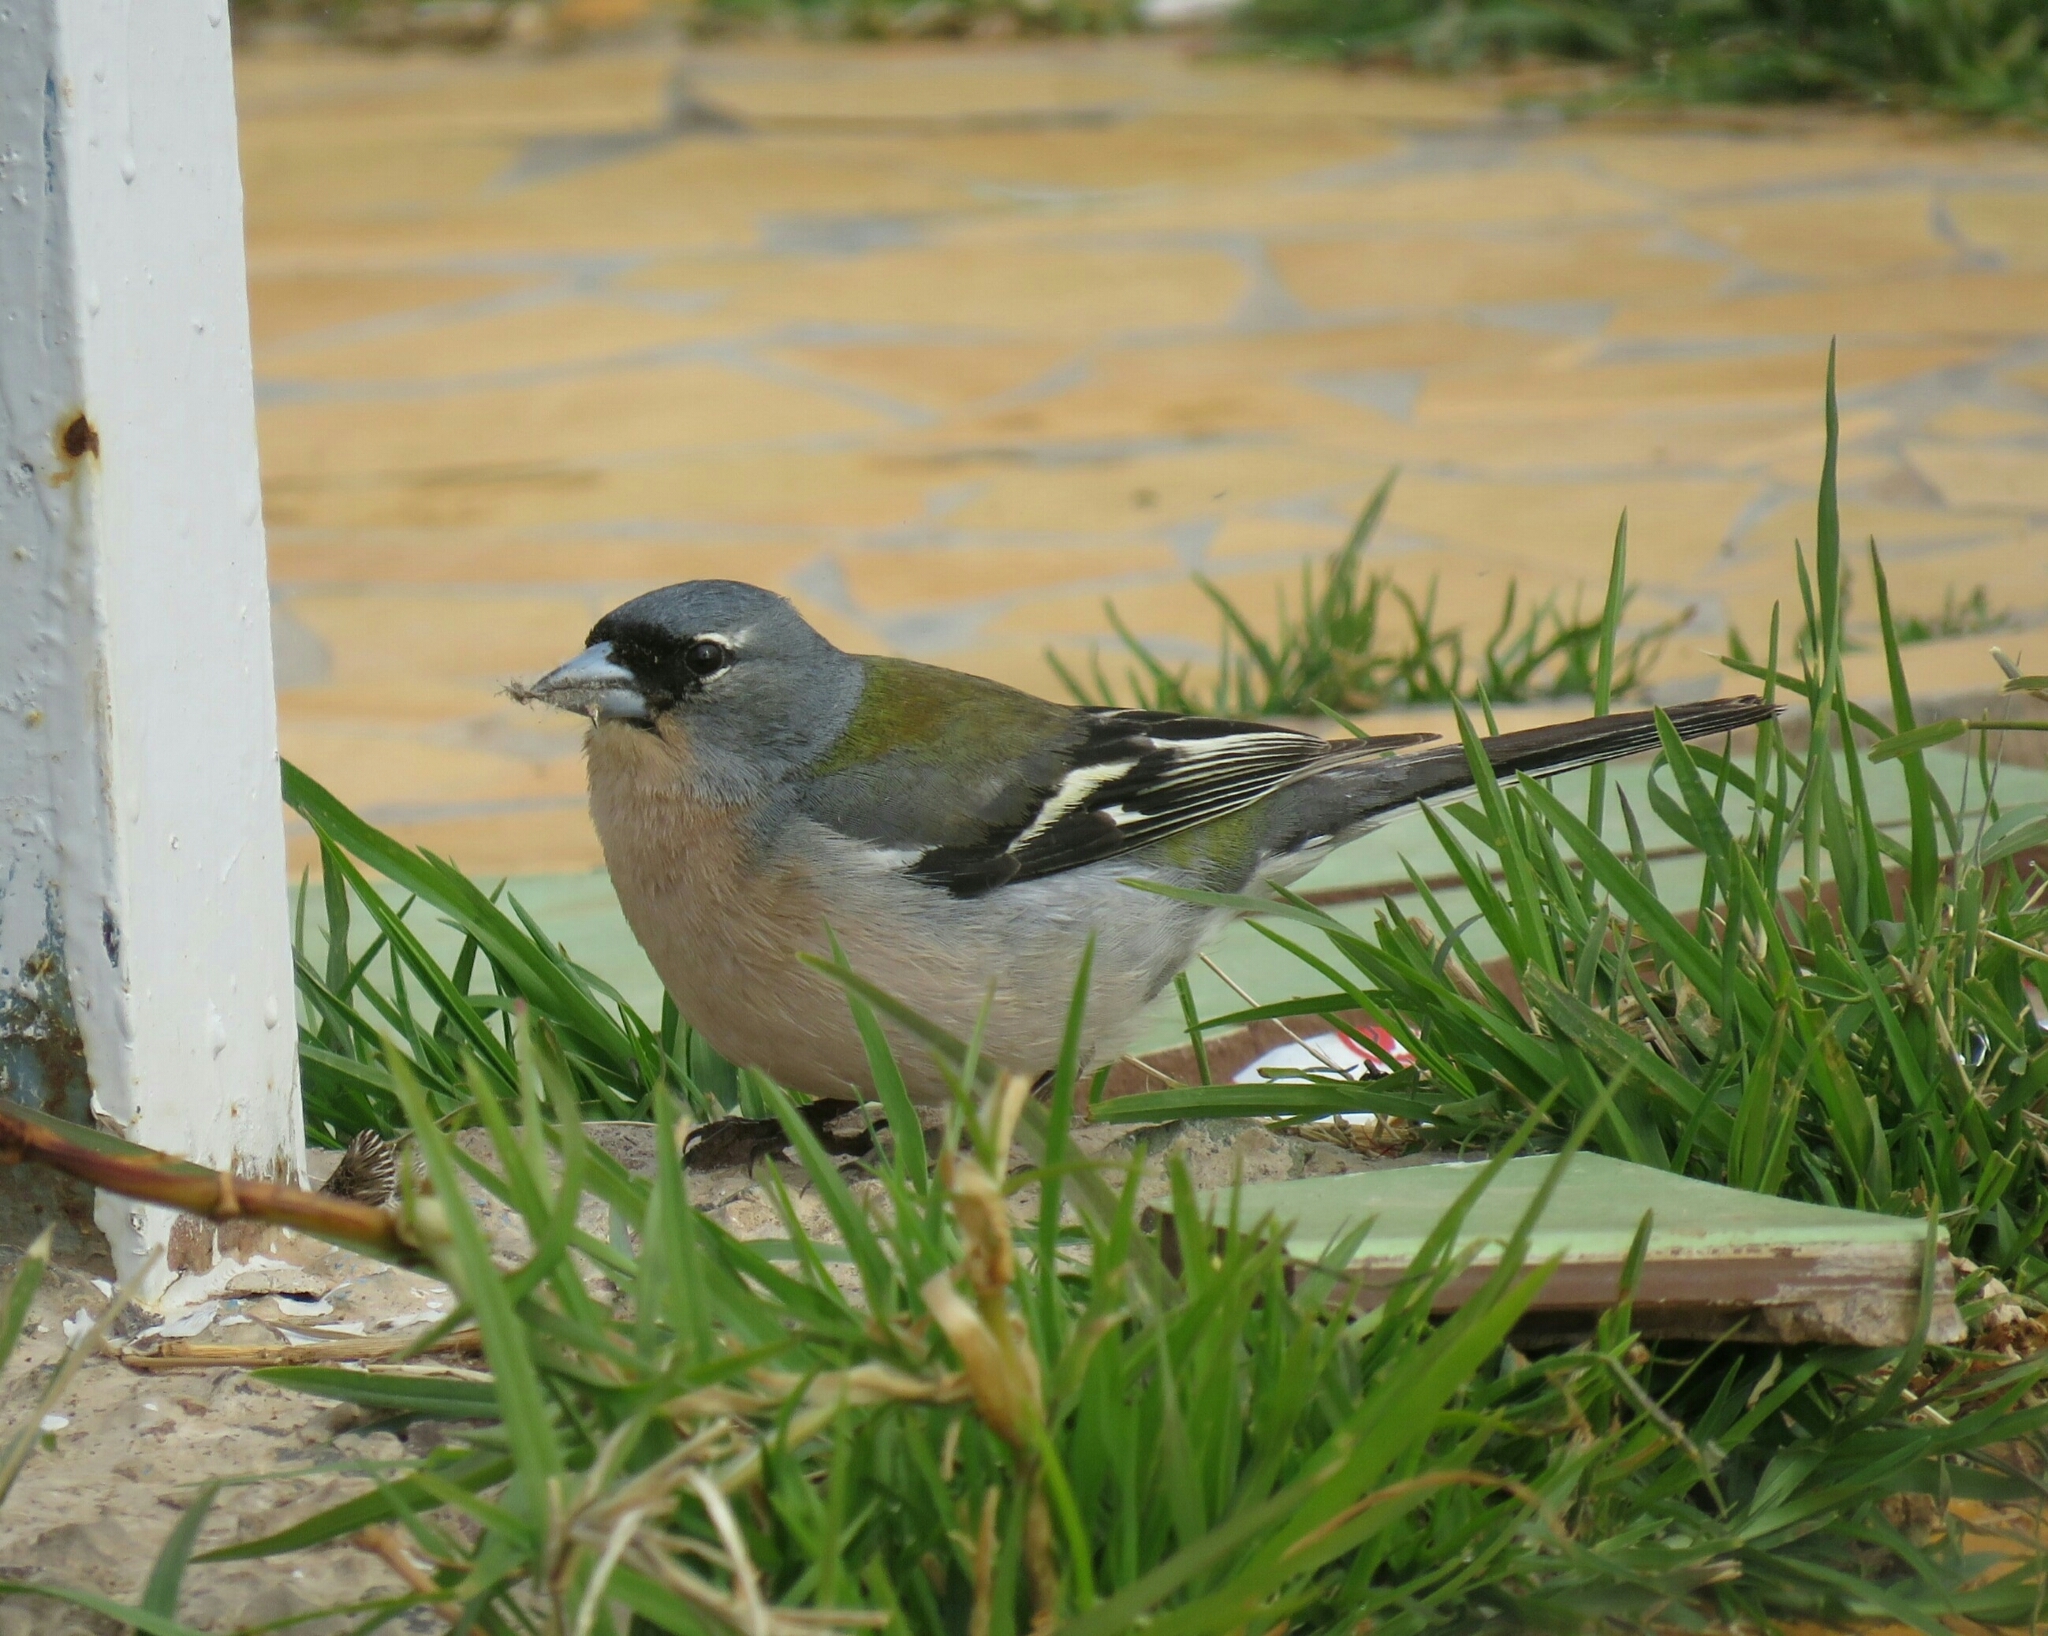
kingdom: Animalia
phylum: Chordata
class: Aves
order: Passeriformes
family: Fringillidae
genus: Fringilla
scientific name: Fringilla spodiogenys
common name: African chaffinch
